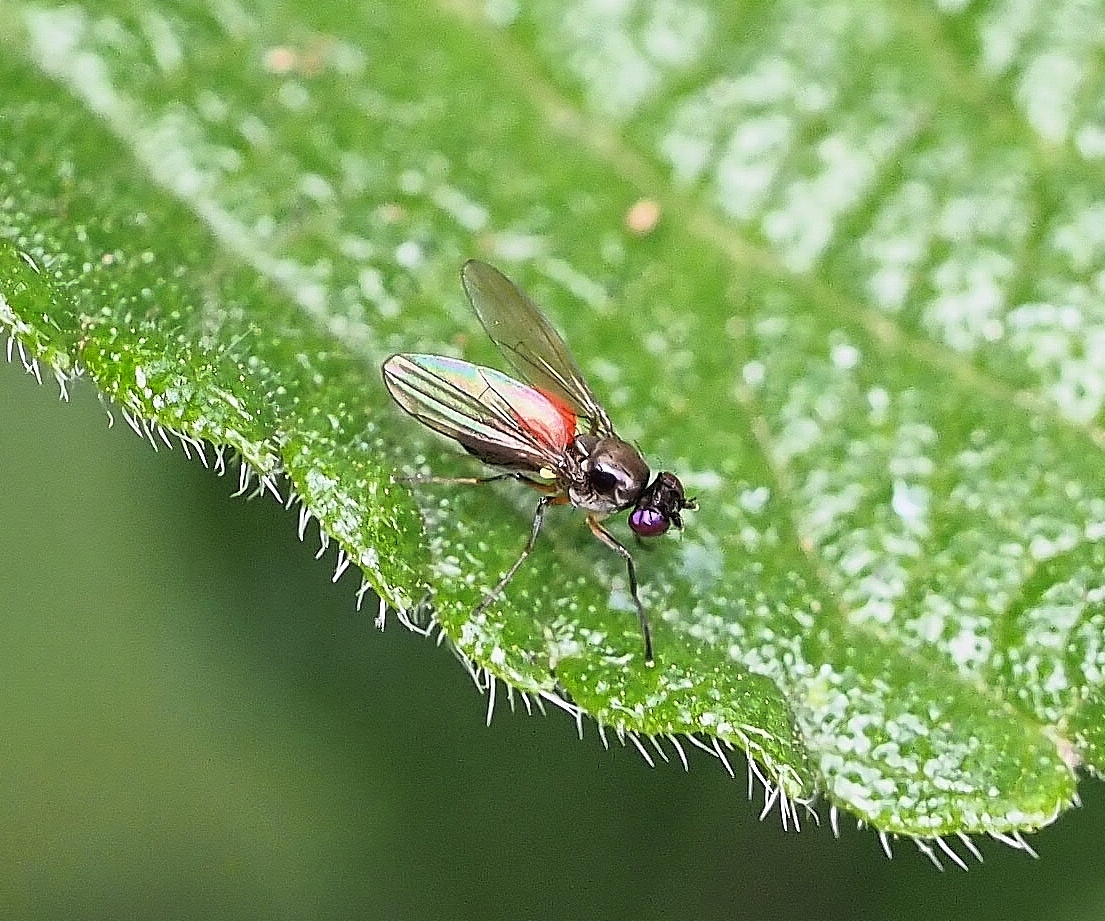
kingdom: Animalia
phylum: Arthropoda
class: Insecta
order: Diptera
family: Ephydridae
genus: Hydrellia
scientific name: Hydrellia tritici
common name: Shore fly
